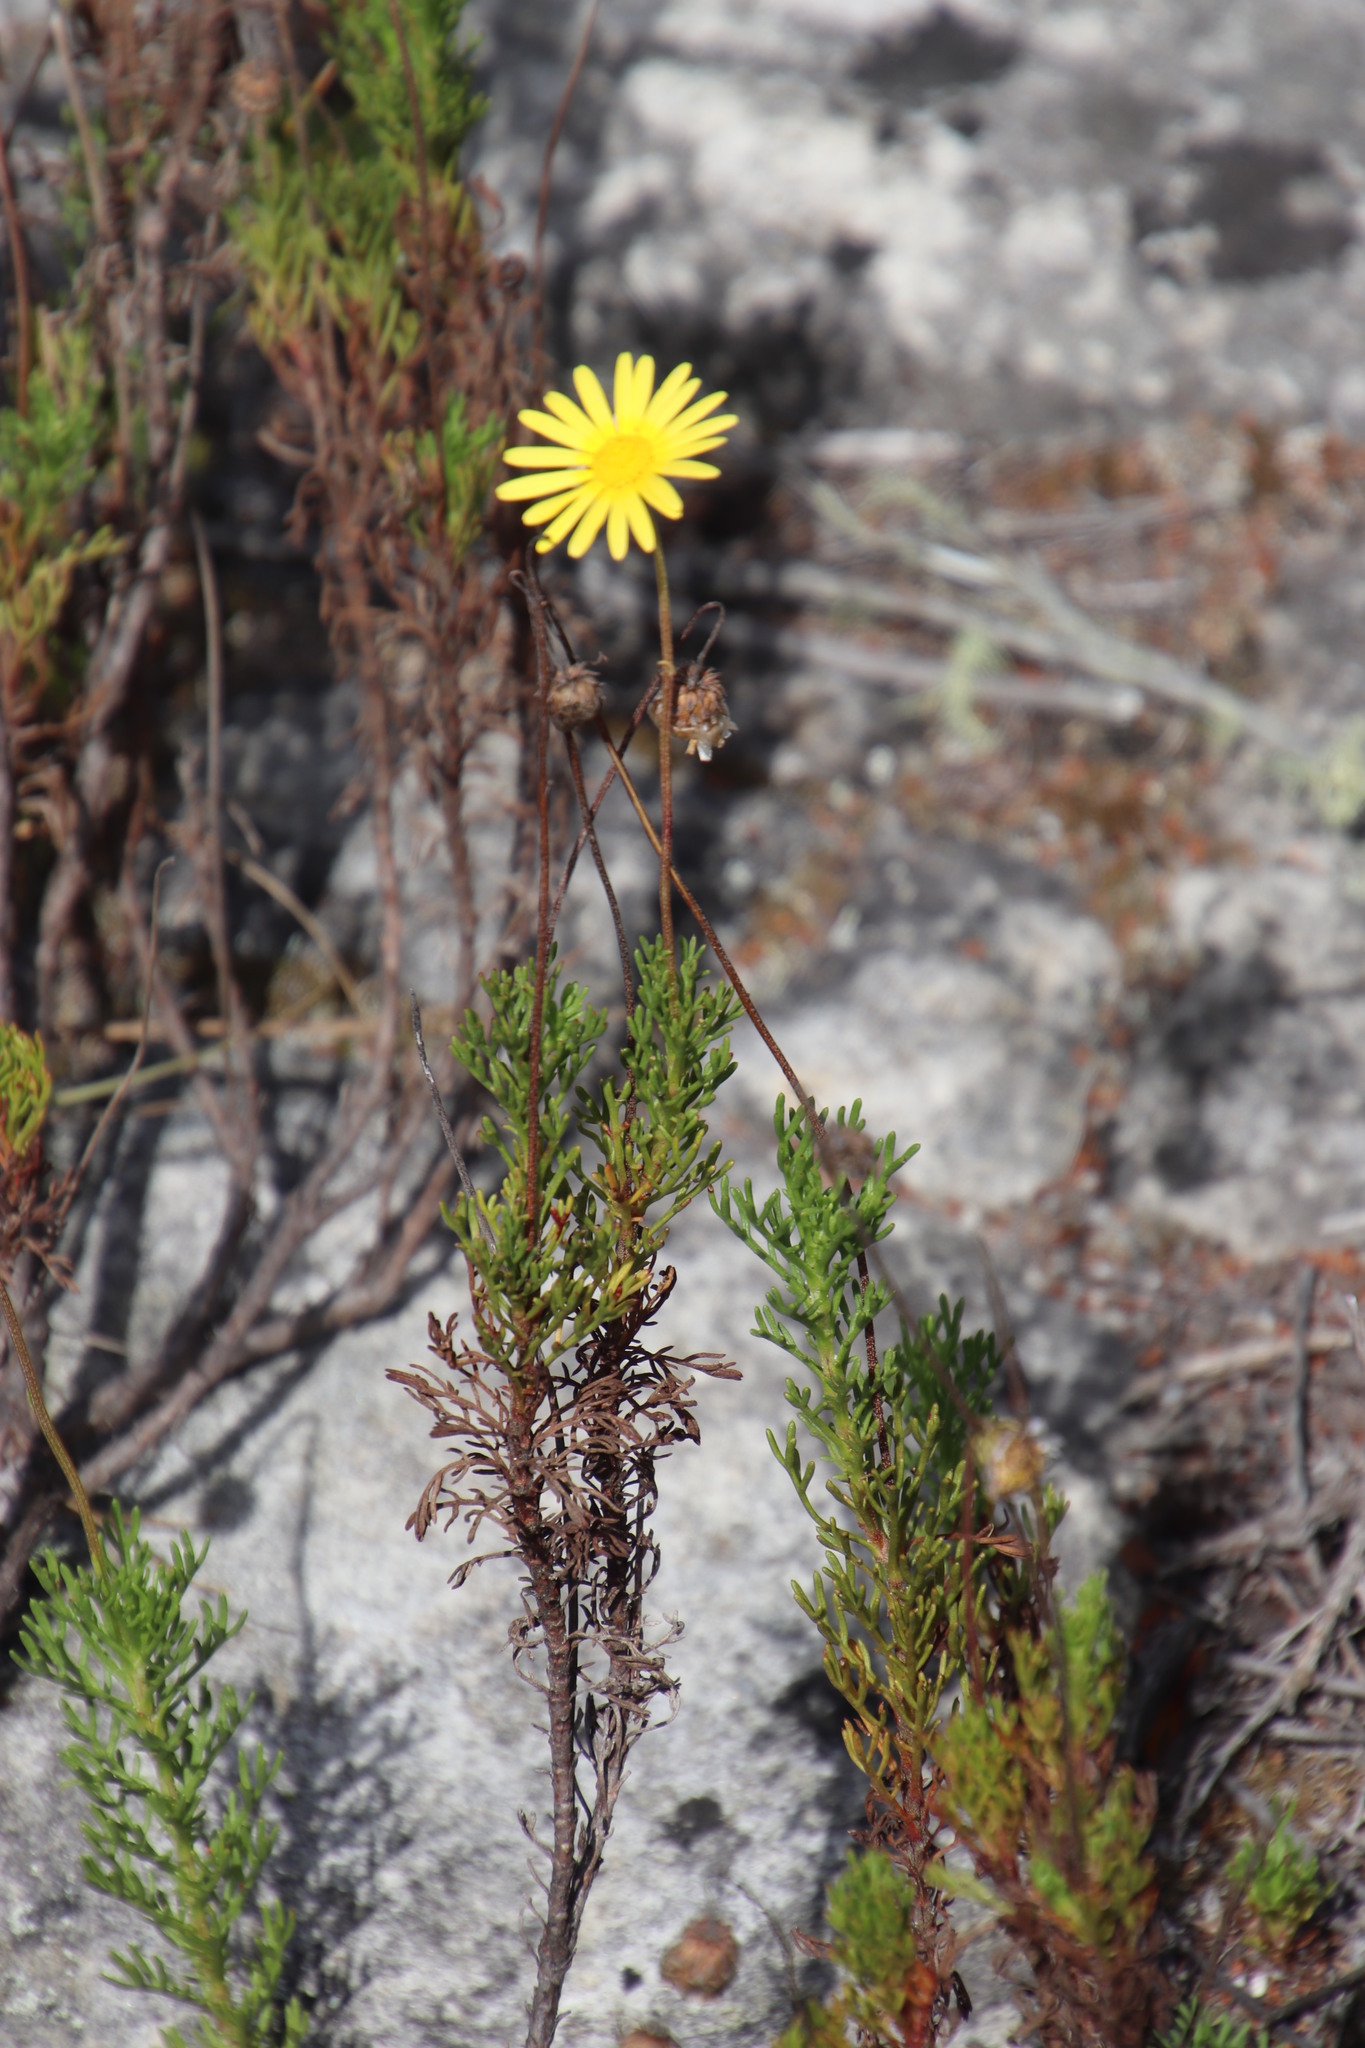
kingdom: Plantae
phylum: Tracheophyta
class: Magnoliopsida
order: Asterales
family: Asteraceae
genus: Ursinia
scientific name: Ursinia paleacea
